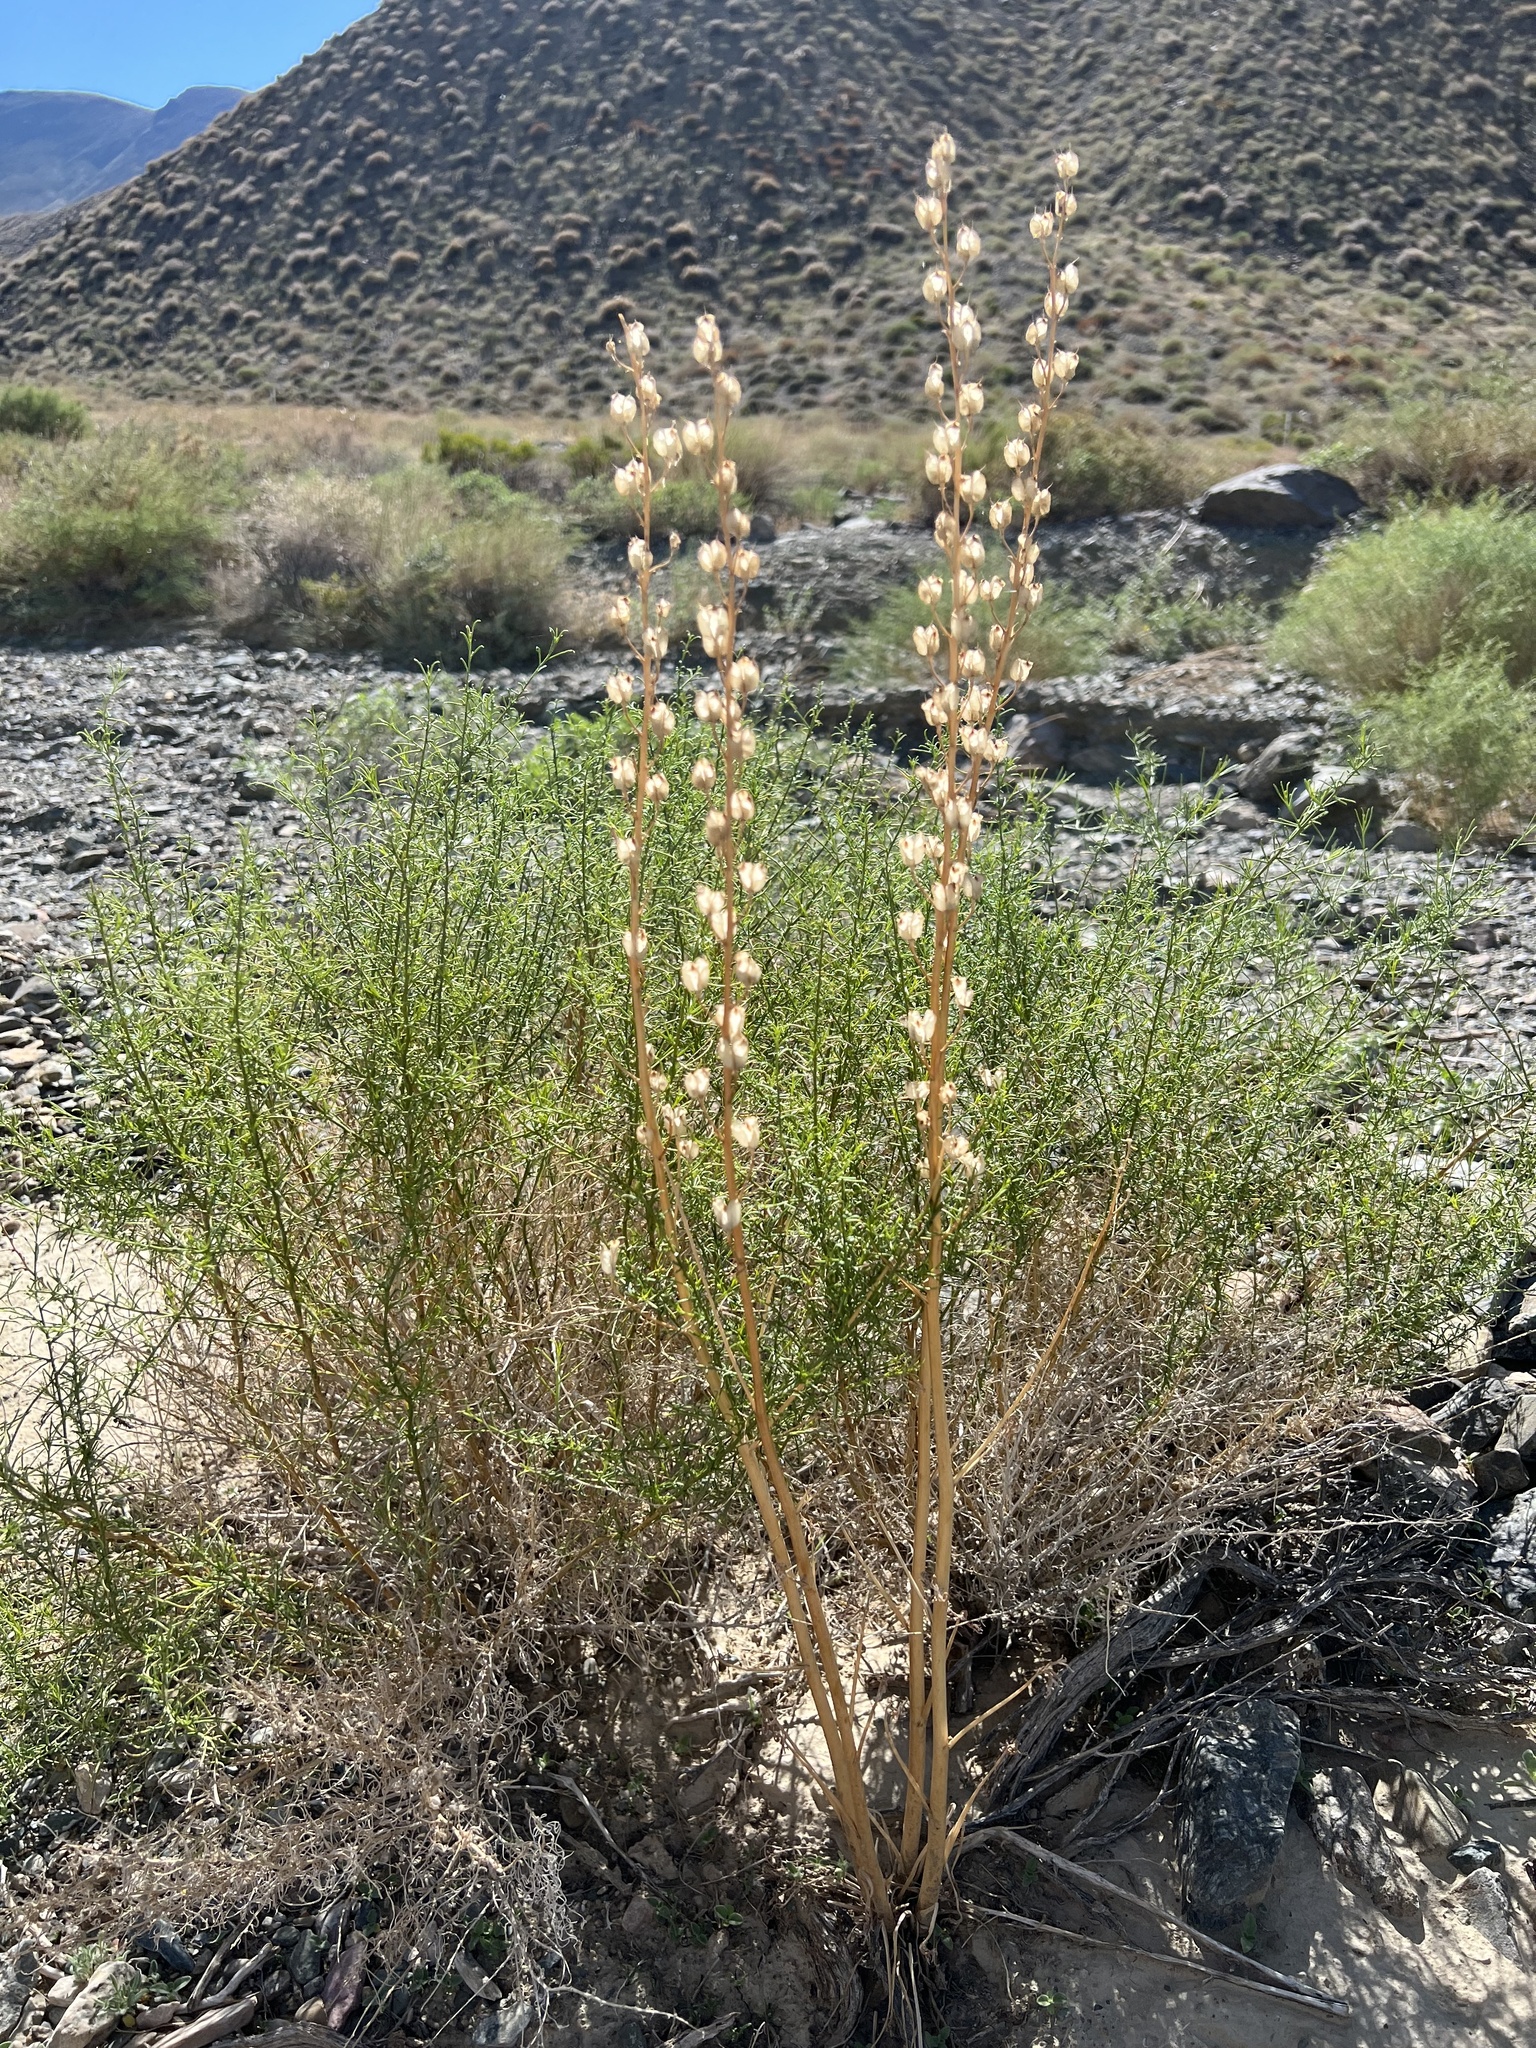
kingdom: Plantae
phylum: Tracheophyta
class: Magnoliopsida
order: Ranunculales
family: Ranunculaceae
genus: Delphinium
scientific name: Delphinium parishii
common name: Apache larkspur
